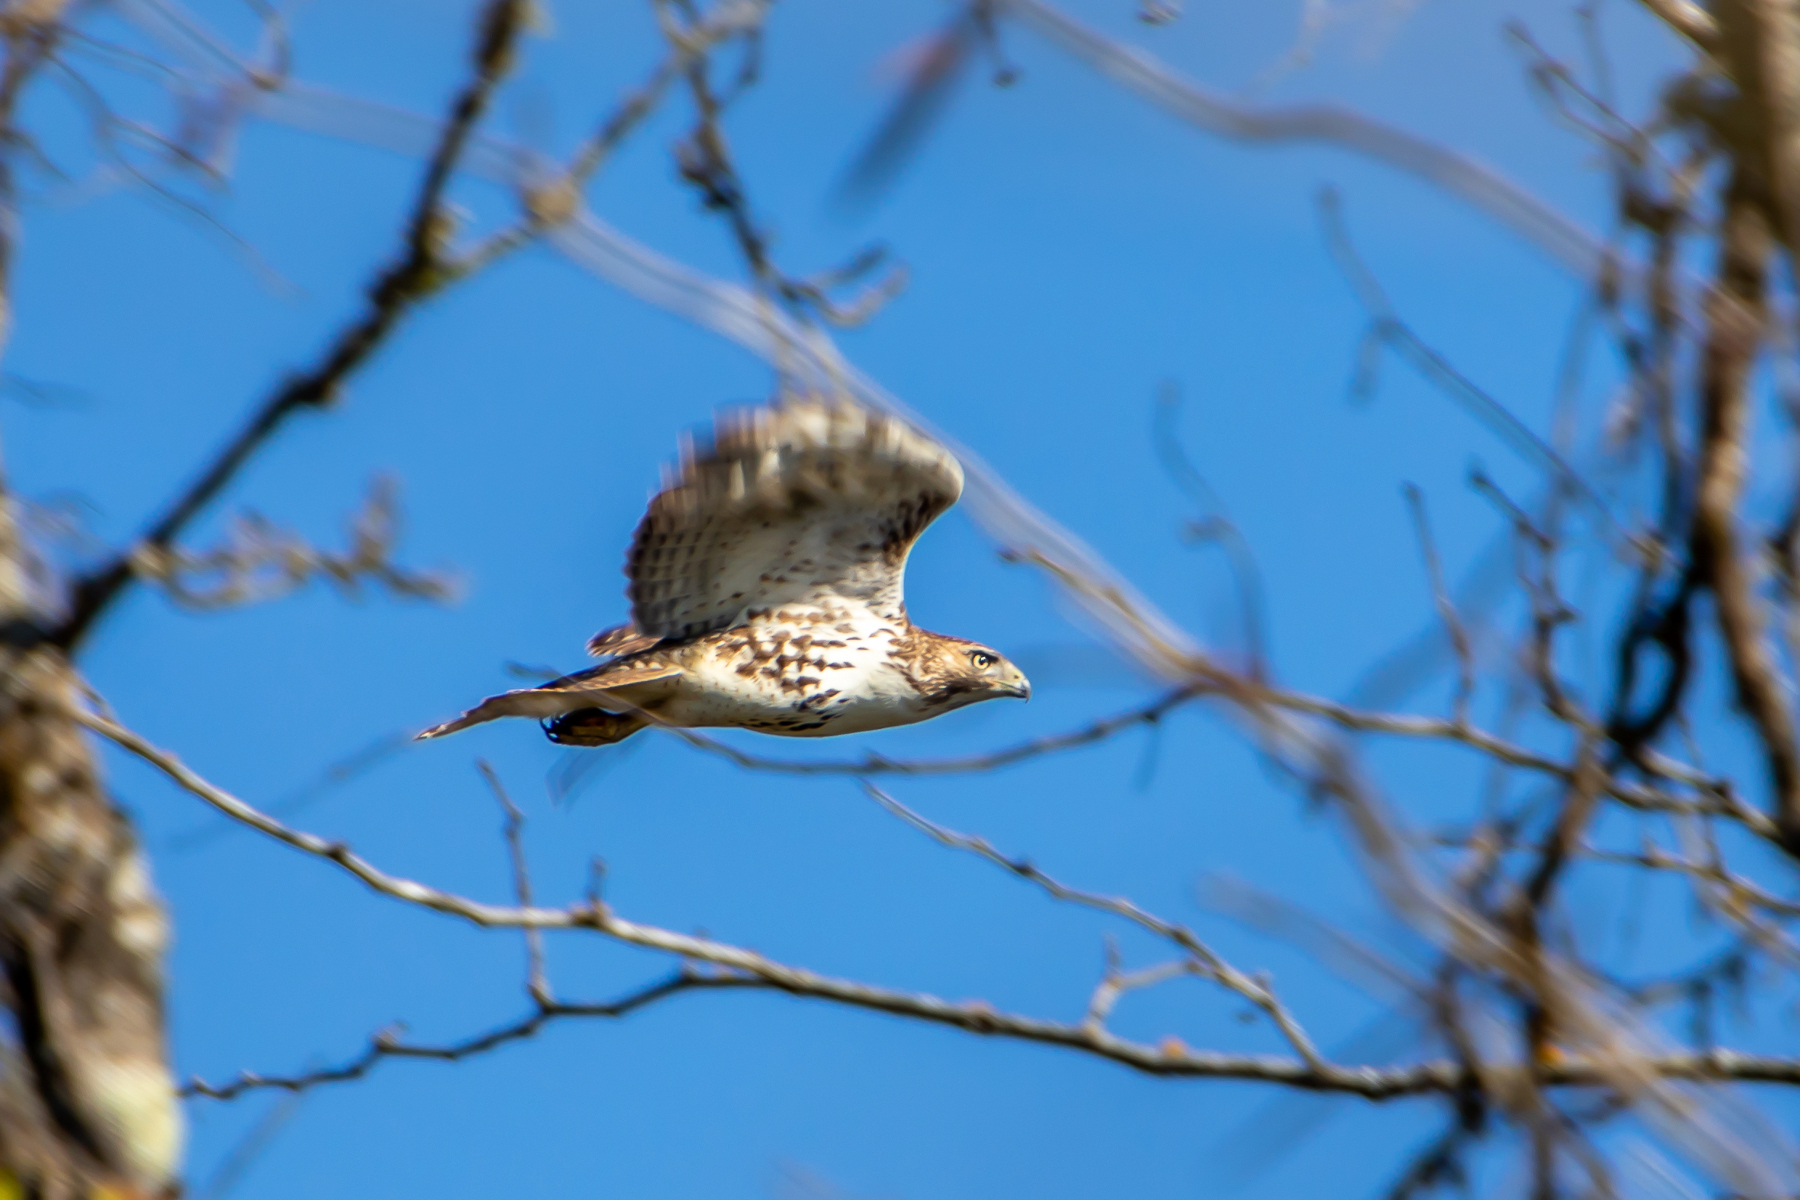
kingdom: Animalia
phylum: Chordata
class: Aves
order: Accipitriformes
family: Accipitridae
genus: Buteo
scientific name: Buteo jamaicensis
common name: Red-tailed hawk
